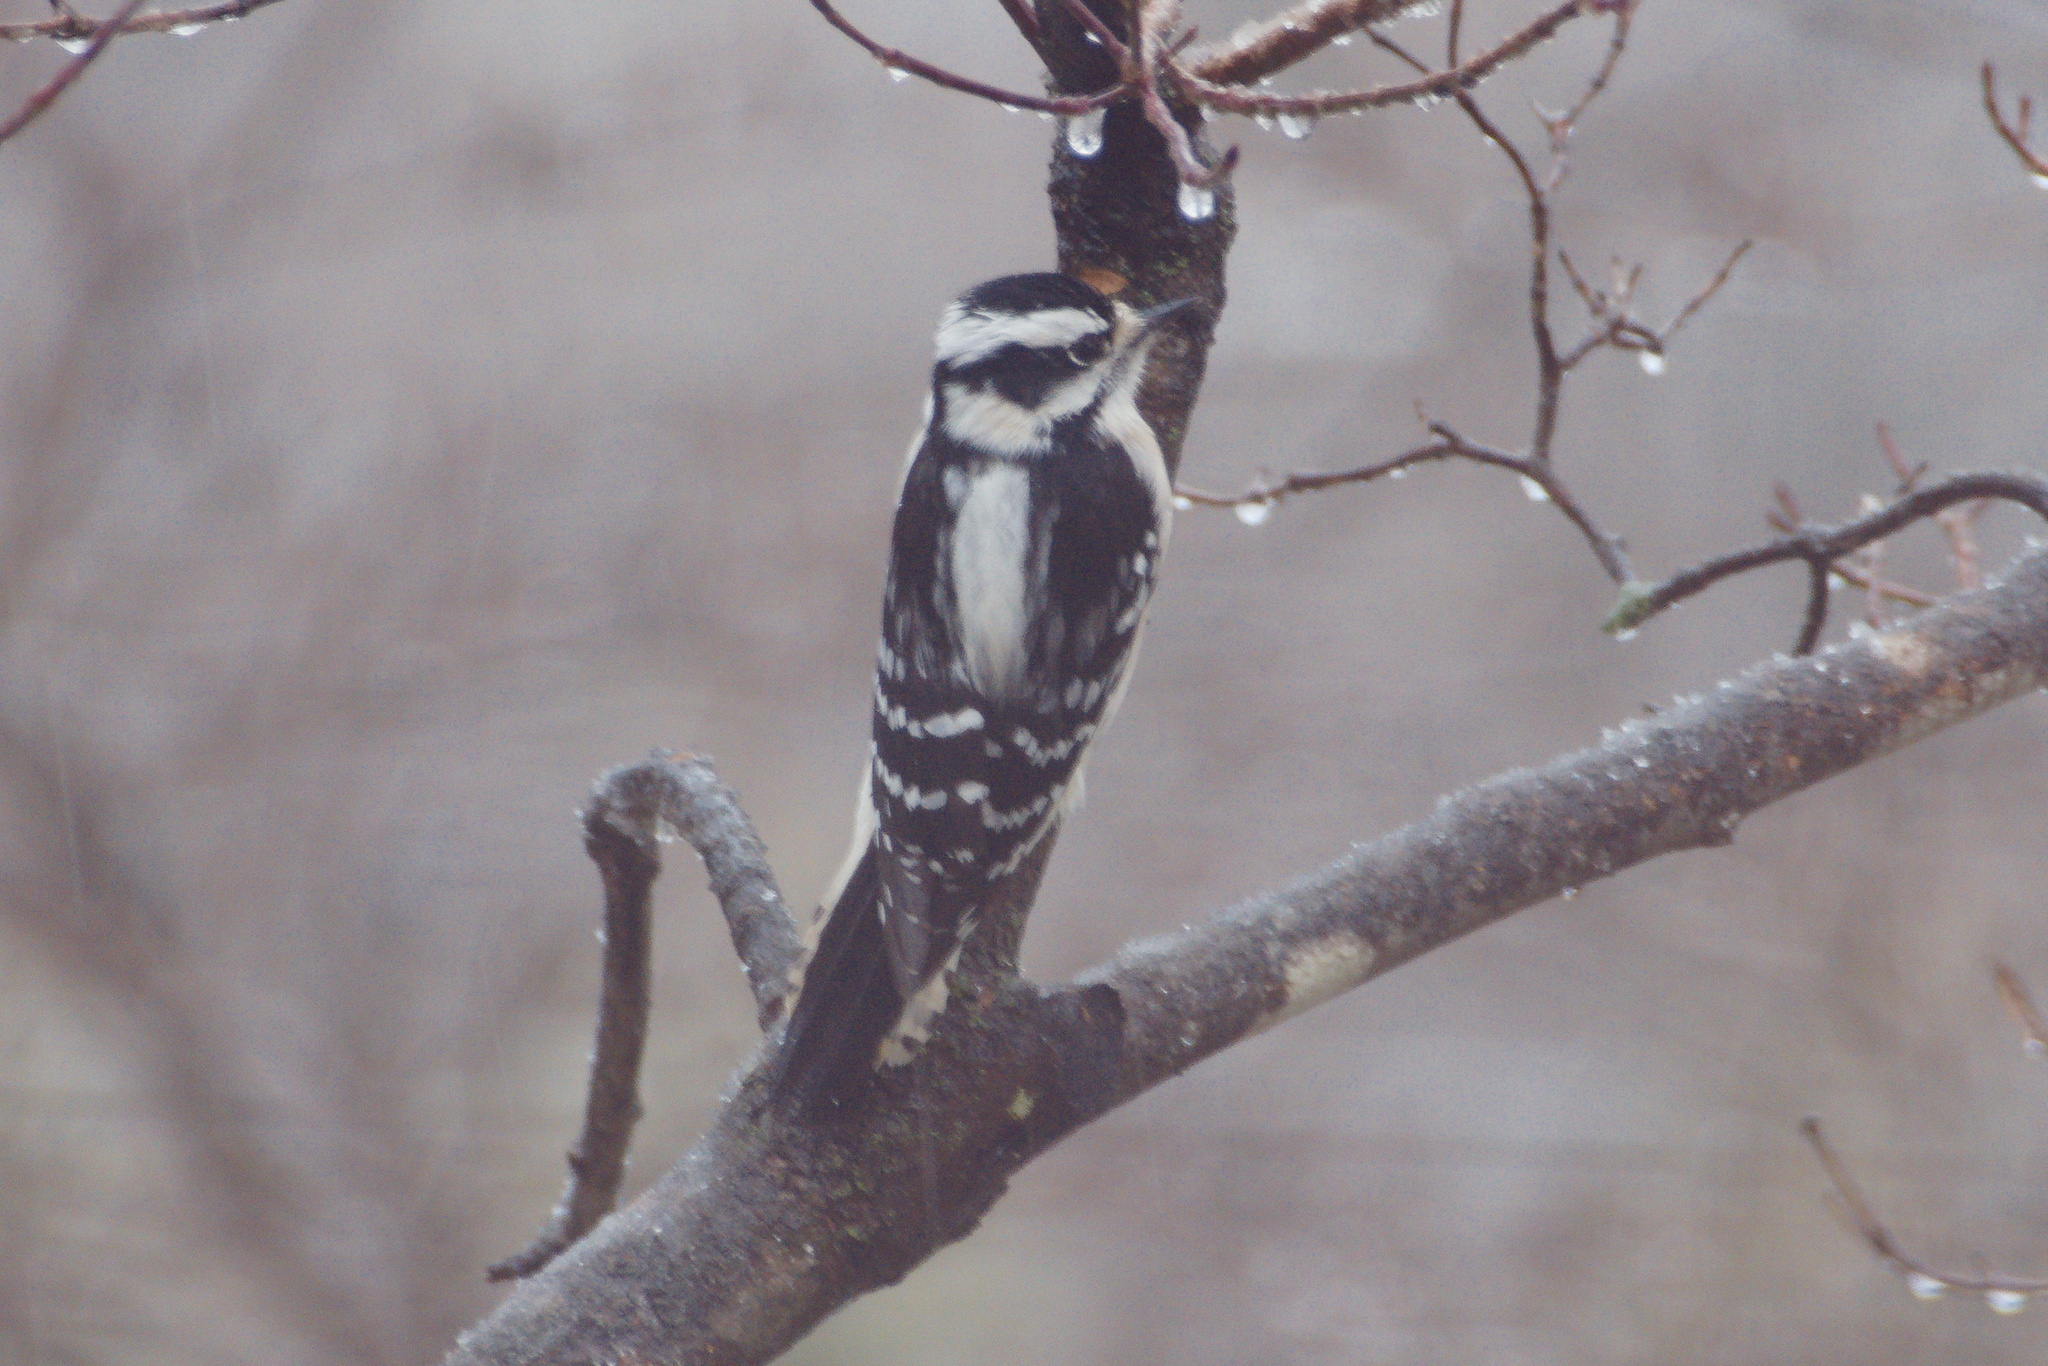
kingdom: Animalia
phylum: Chordata
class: Aves
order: Piciformes
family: Picidae
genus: Dryobates
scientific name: Dryobates pubescens
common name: Downy woodpecker
